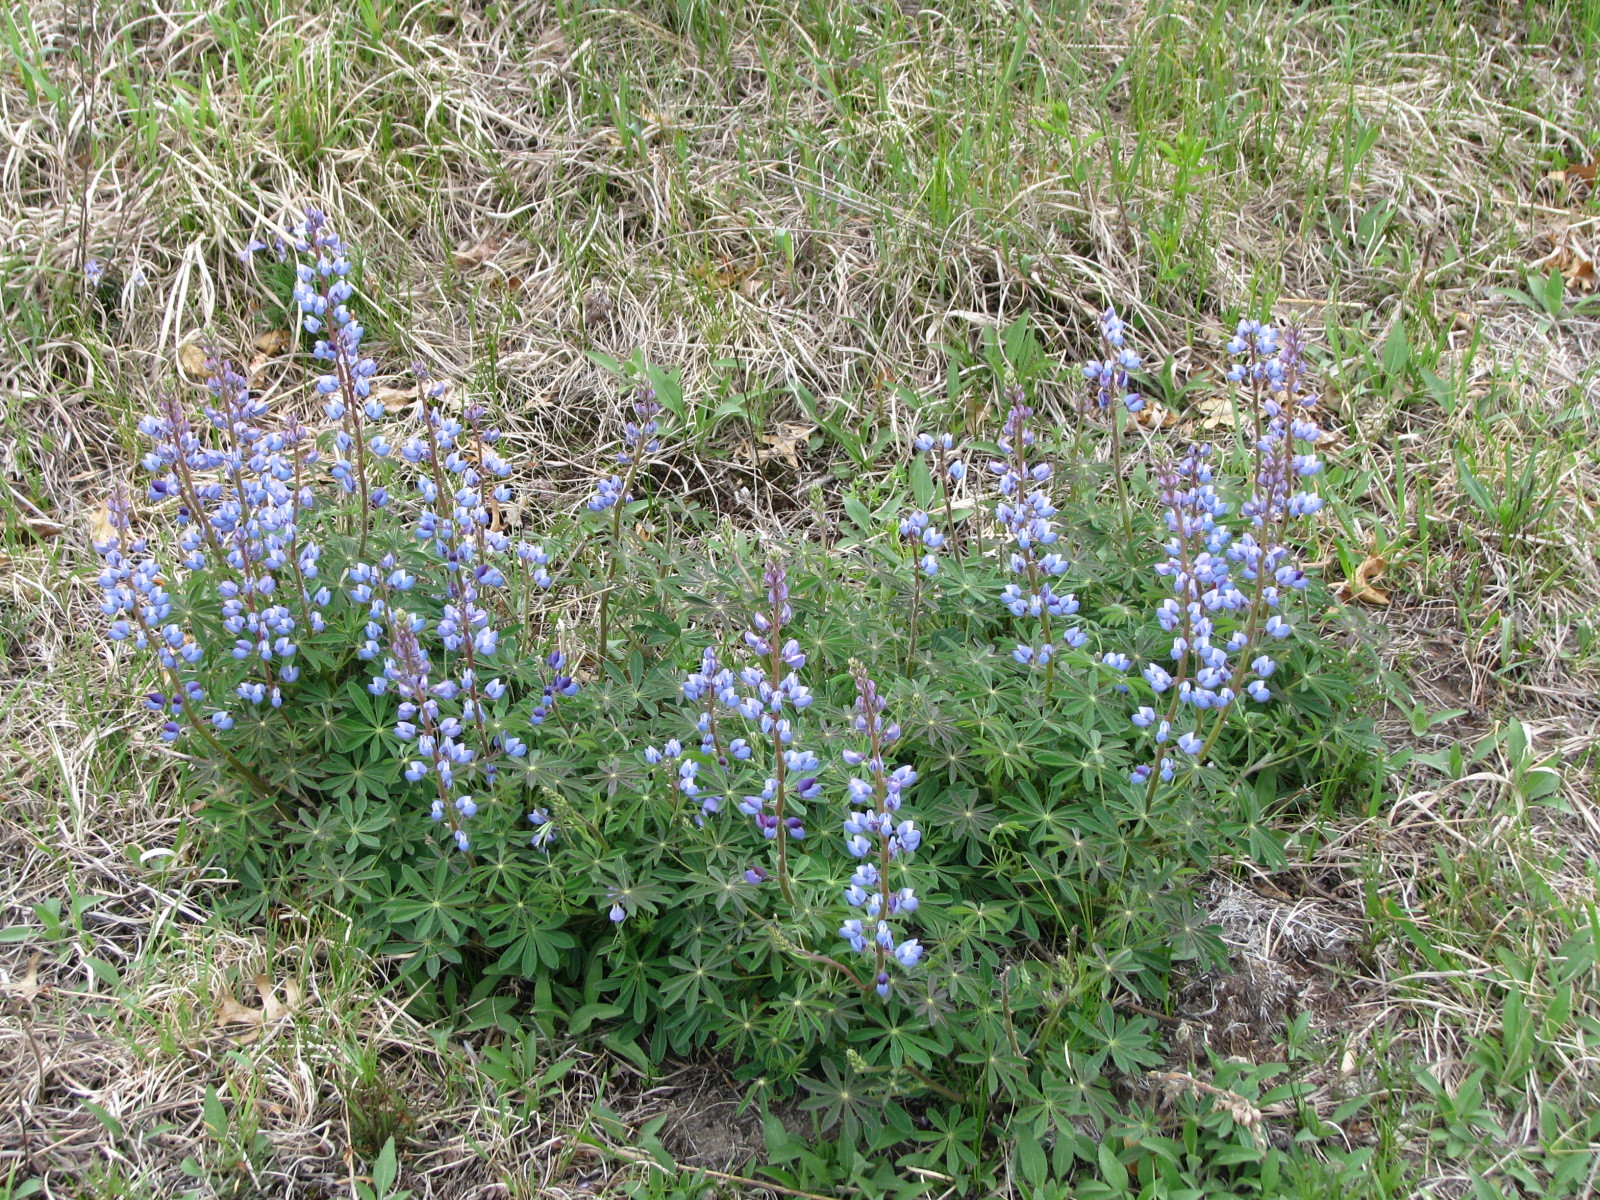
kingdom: Plantae
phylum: Tracheophyta
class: Magnoliopsida
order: Fabales
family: Fabaceae
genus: Lupinus
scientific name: Lupinus perennis
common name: Sundial lupine
